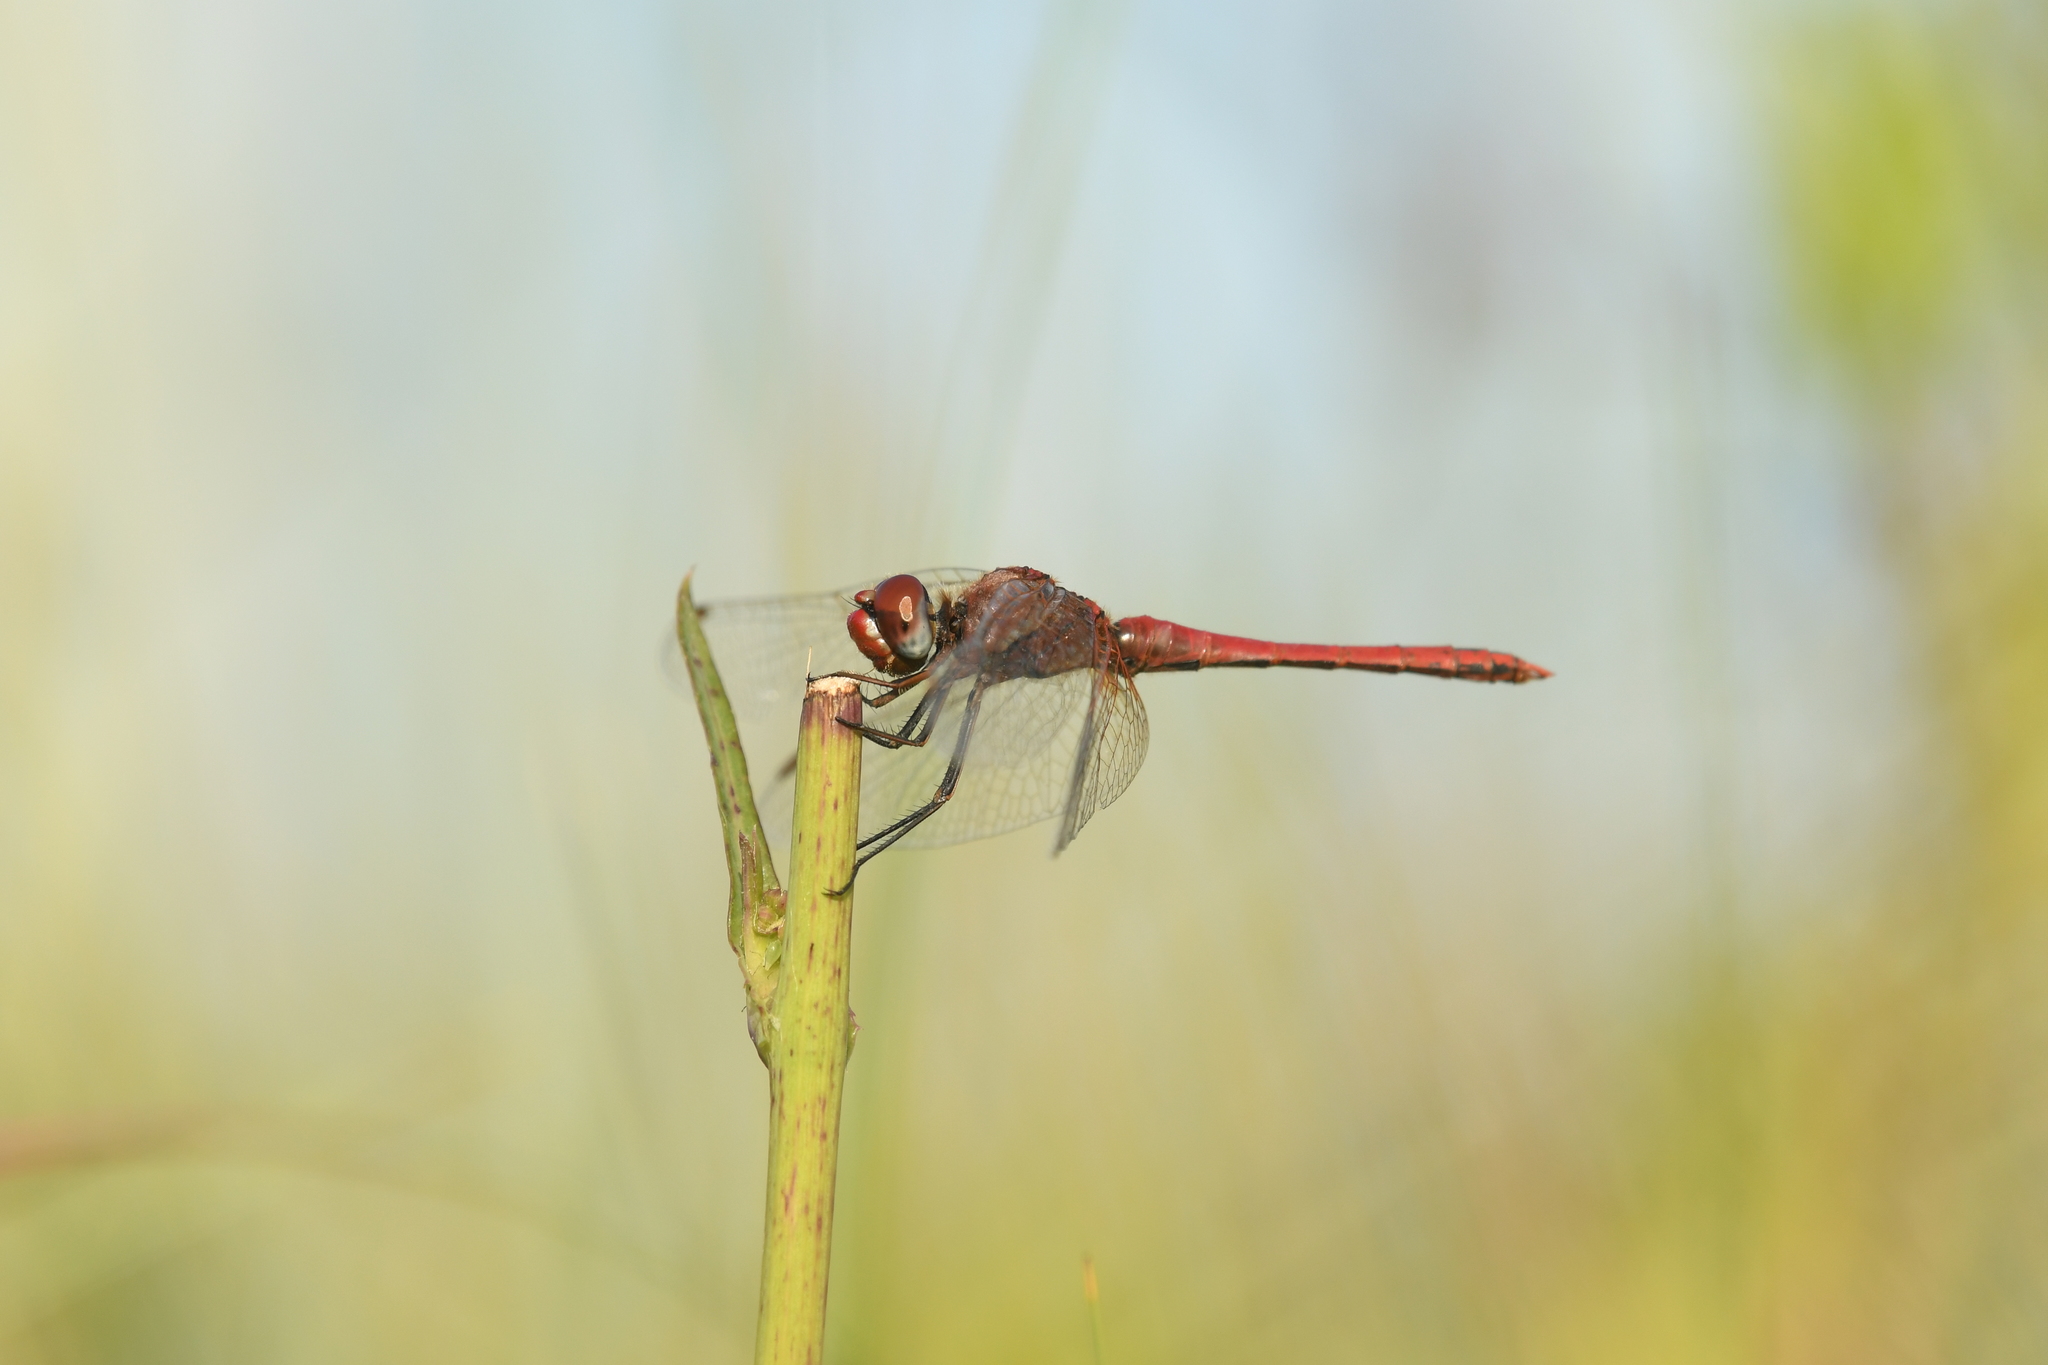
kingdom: Animalia
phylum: Arthropoda
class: Insecta
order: Odonata
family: Libellulidae
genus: Sympetrum
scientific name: Sympetrum fonscolombii
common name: Red-veined darter
